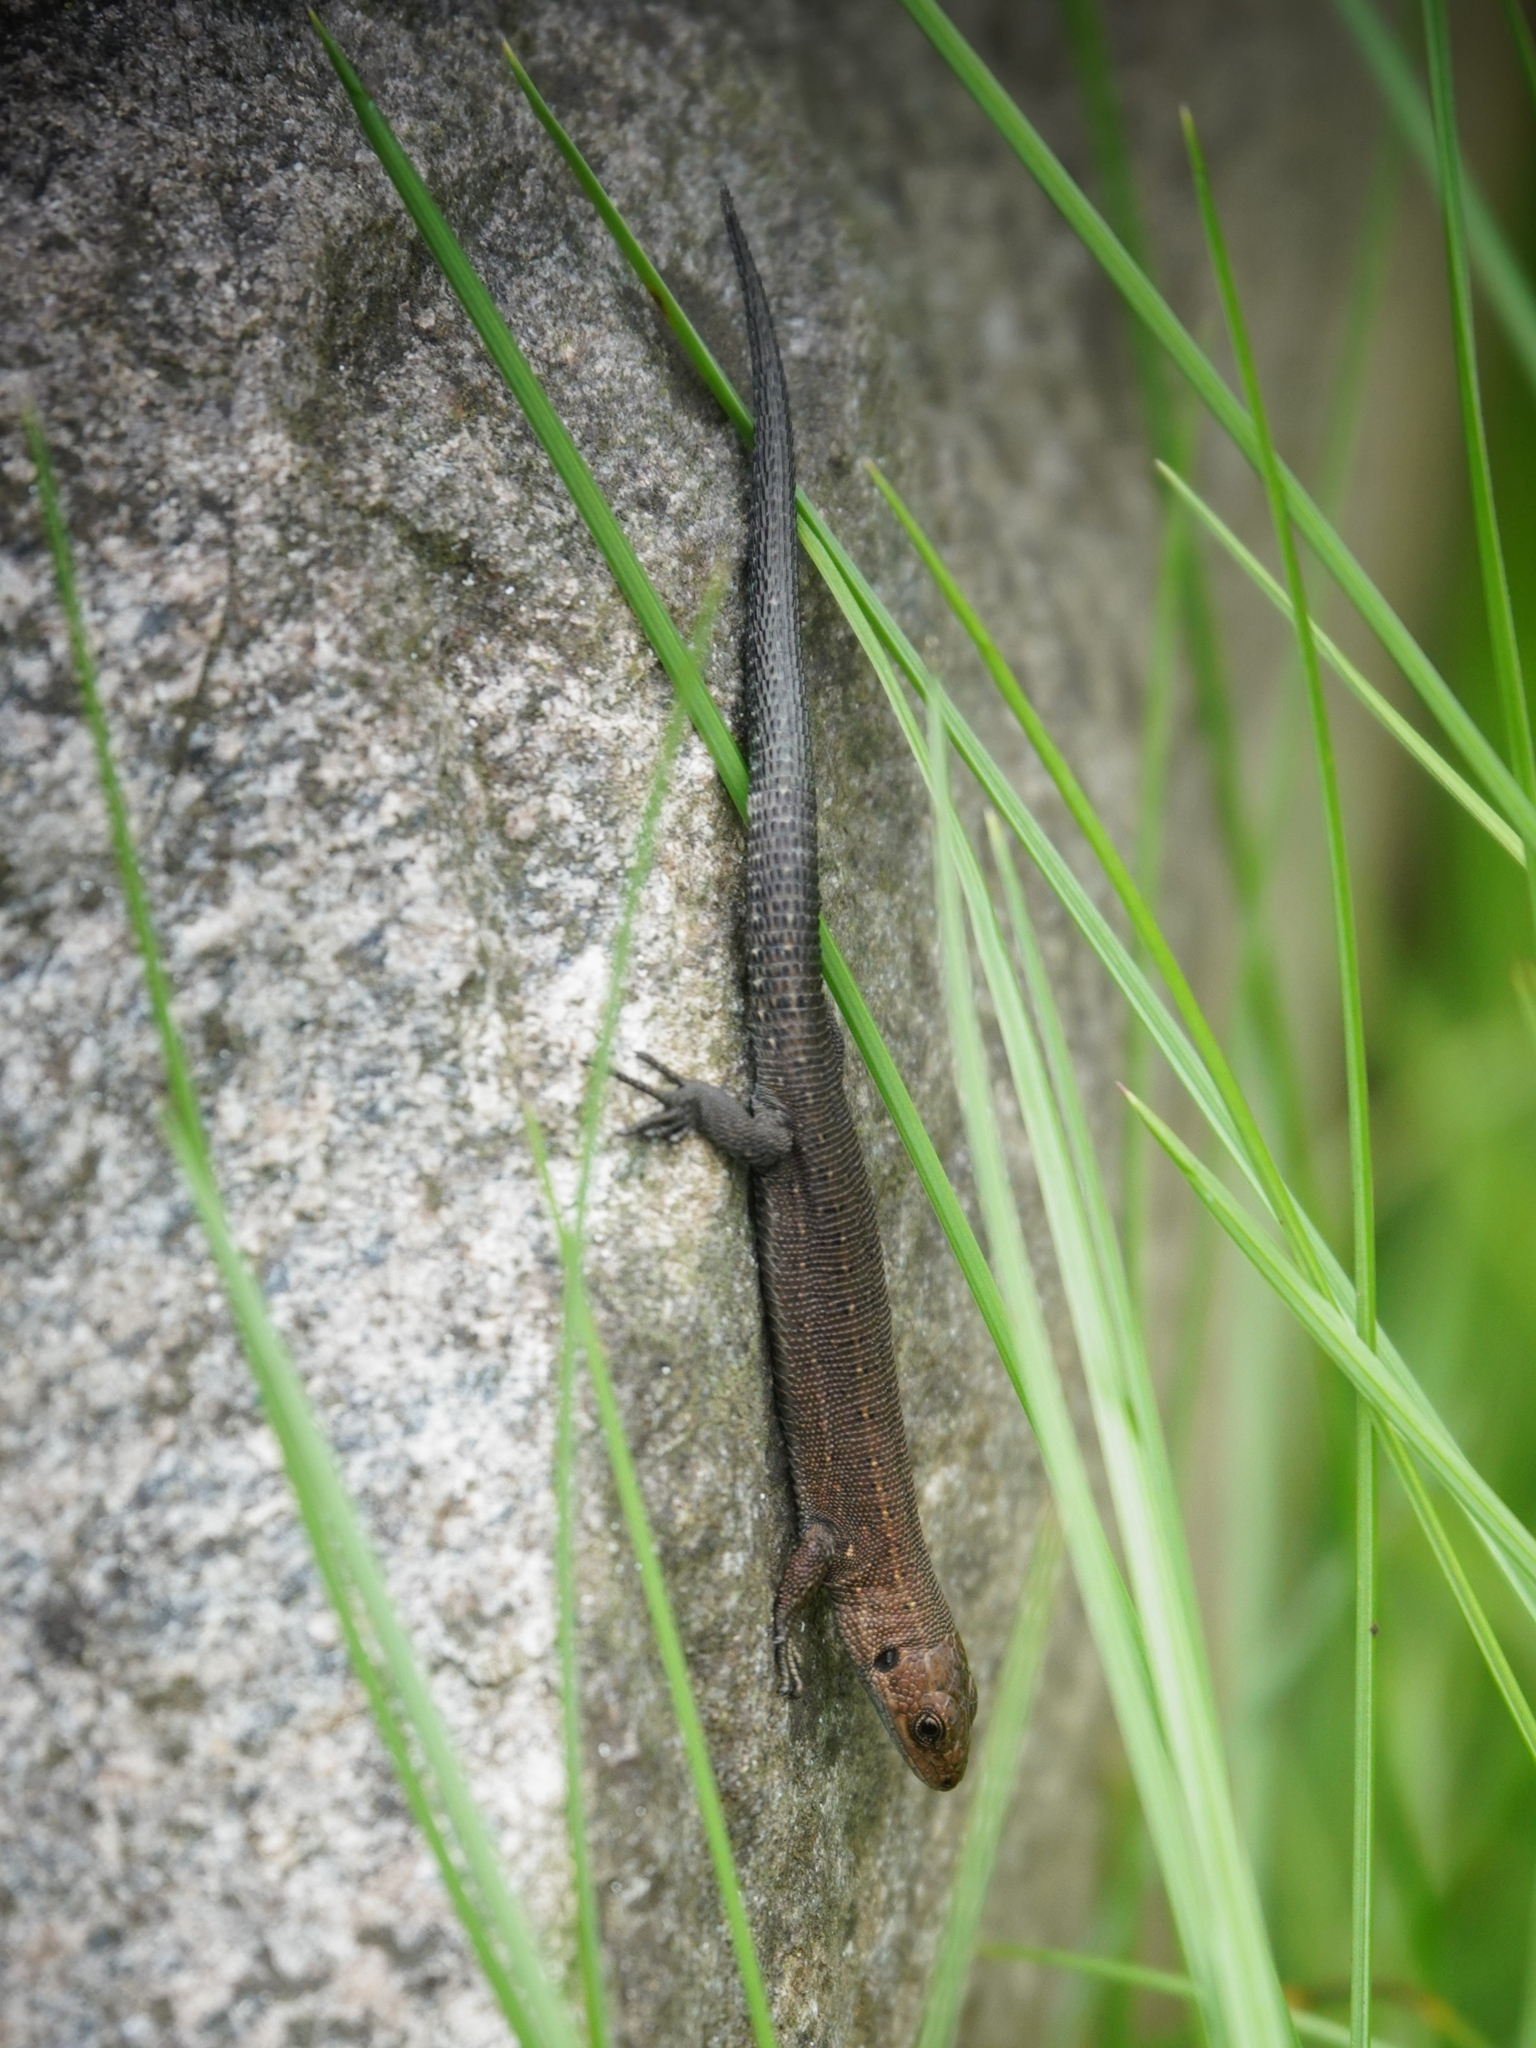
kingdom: Animalia
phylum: Chordata
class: Squamata
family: Lacertidae
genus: Zootoca
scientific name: Zootoca vivipara
